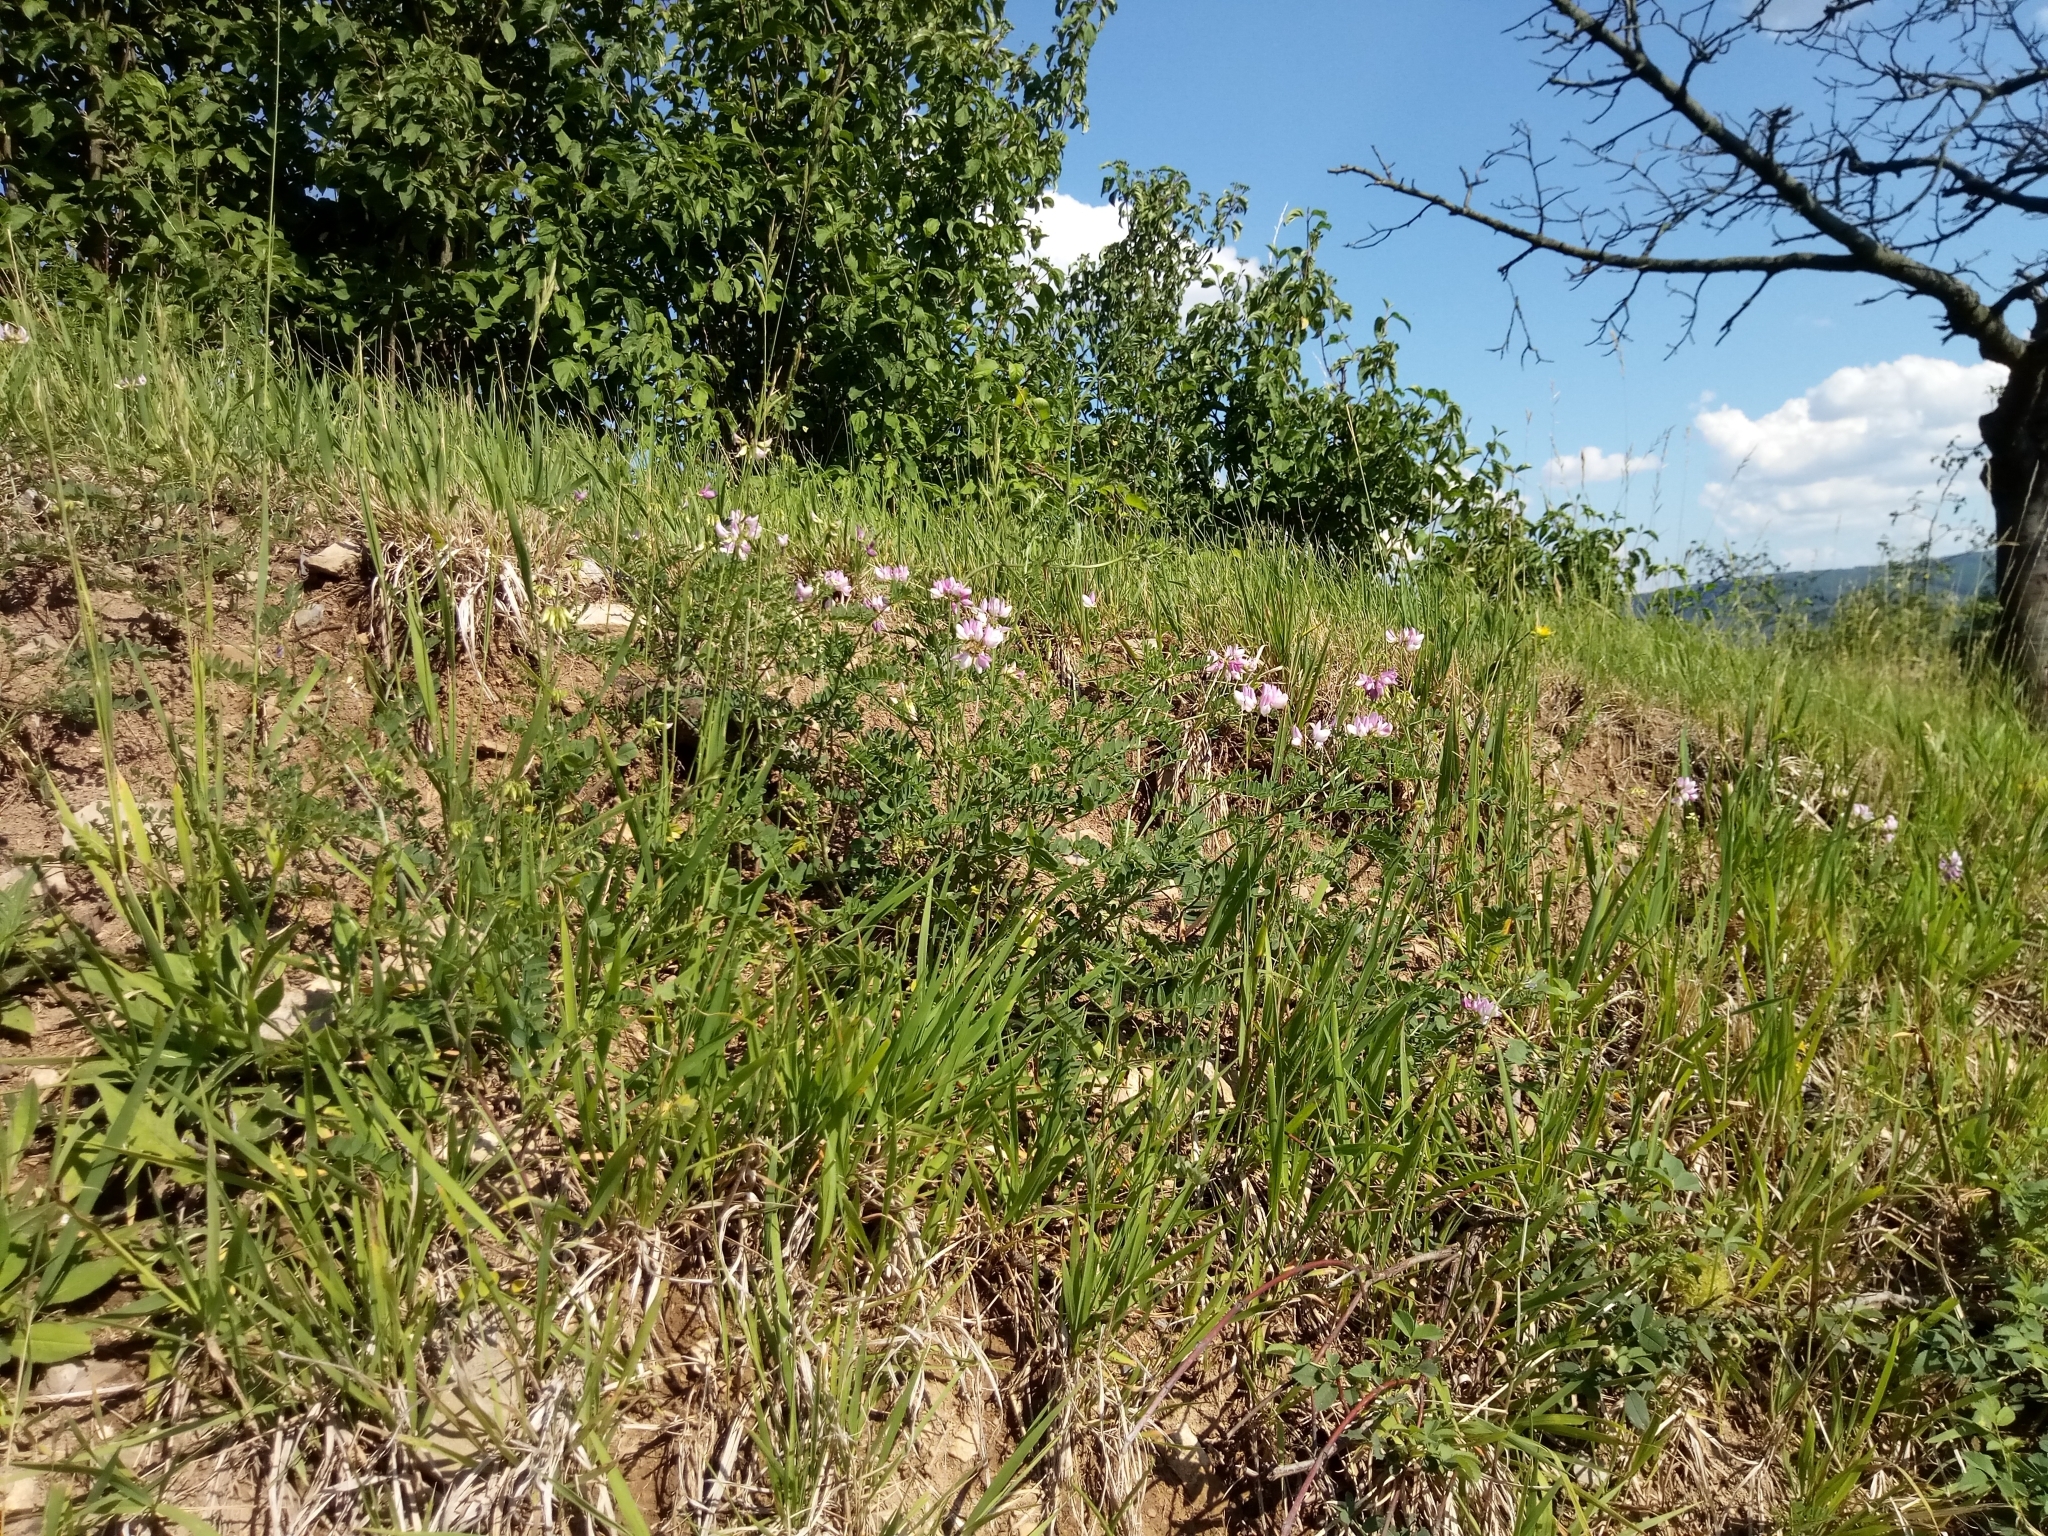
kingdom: Plantae
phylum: Tracheophyta
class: Magnoliopsida
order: Fabales
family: Fabaceae
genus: Coronilla
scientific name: Coronilla varia
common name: Crownvetch
